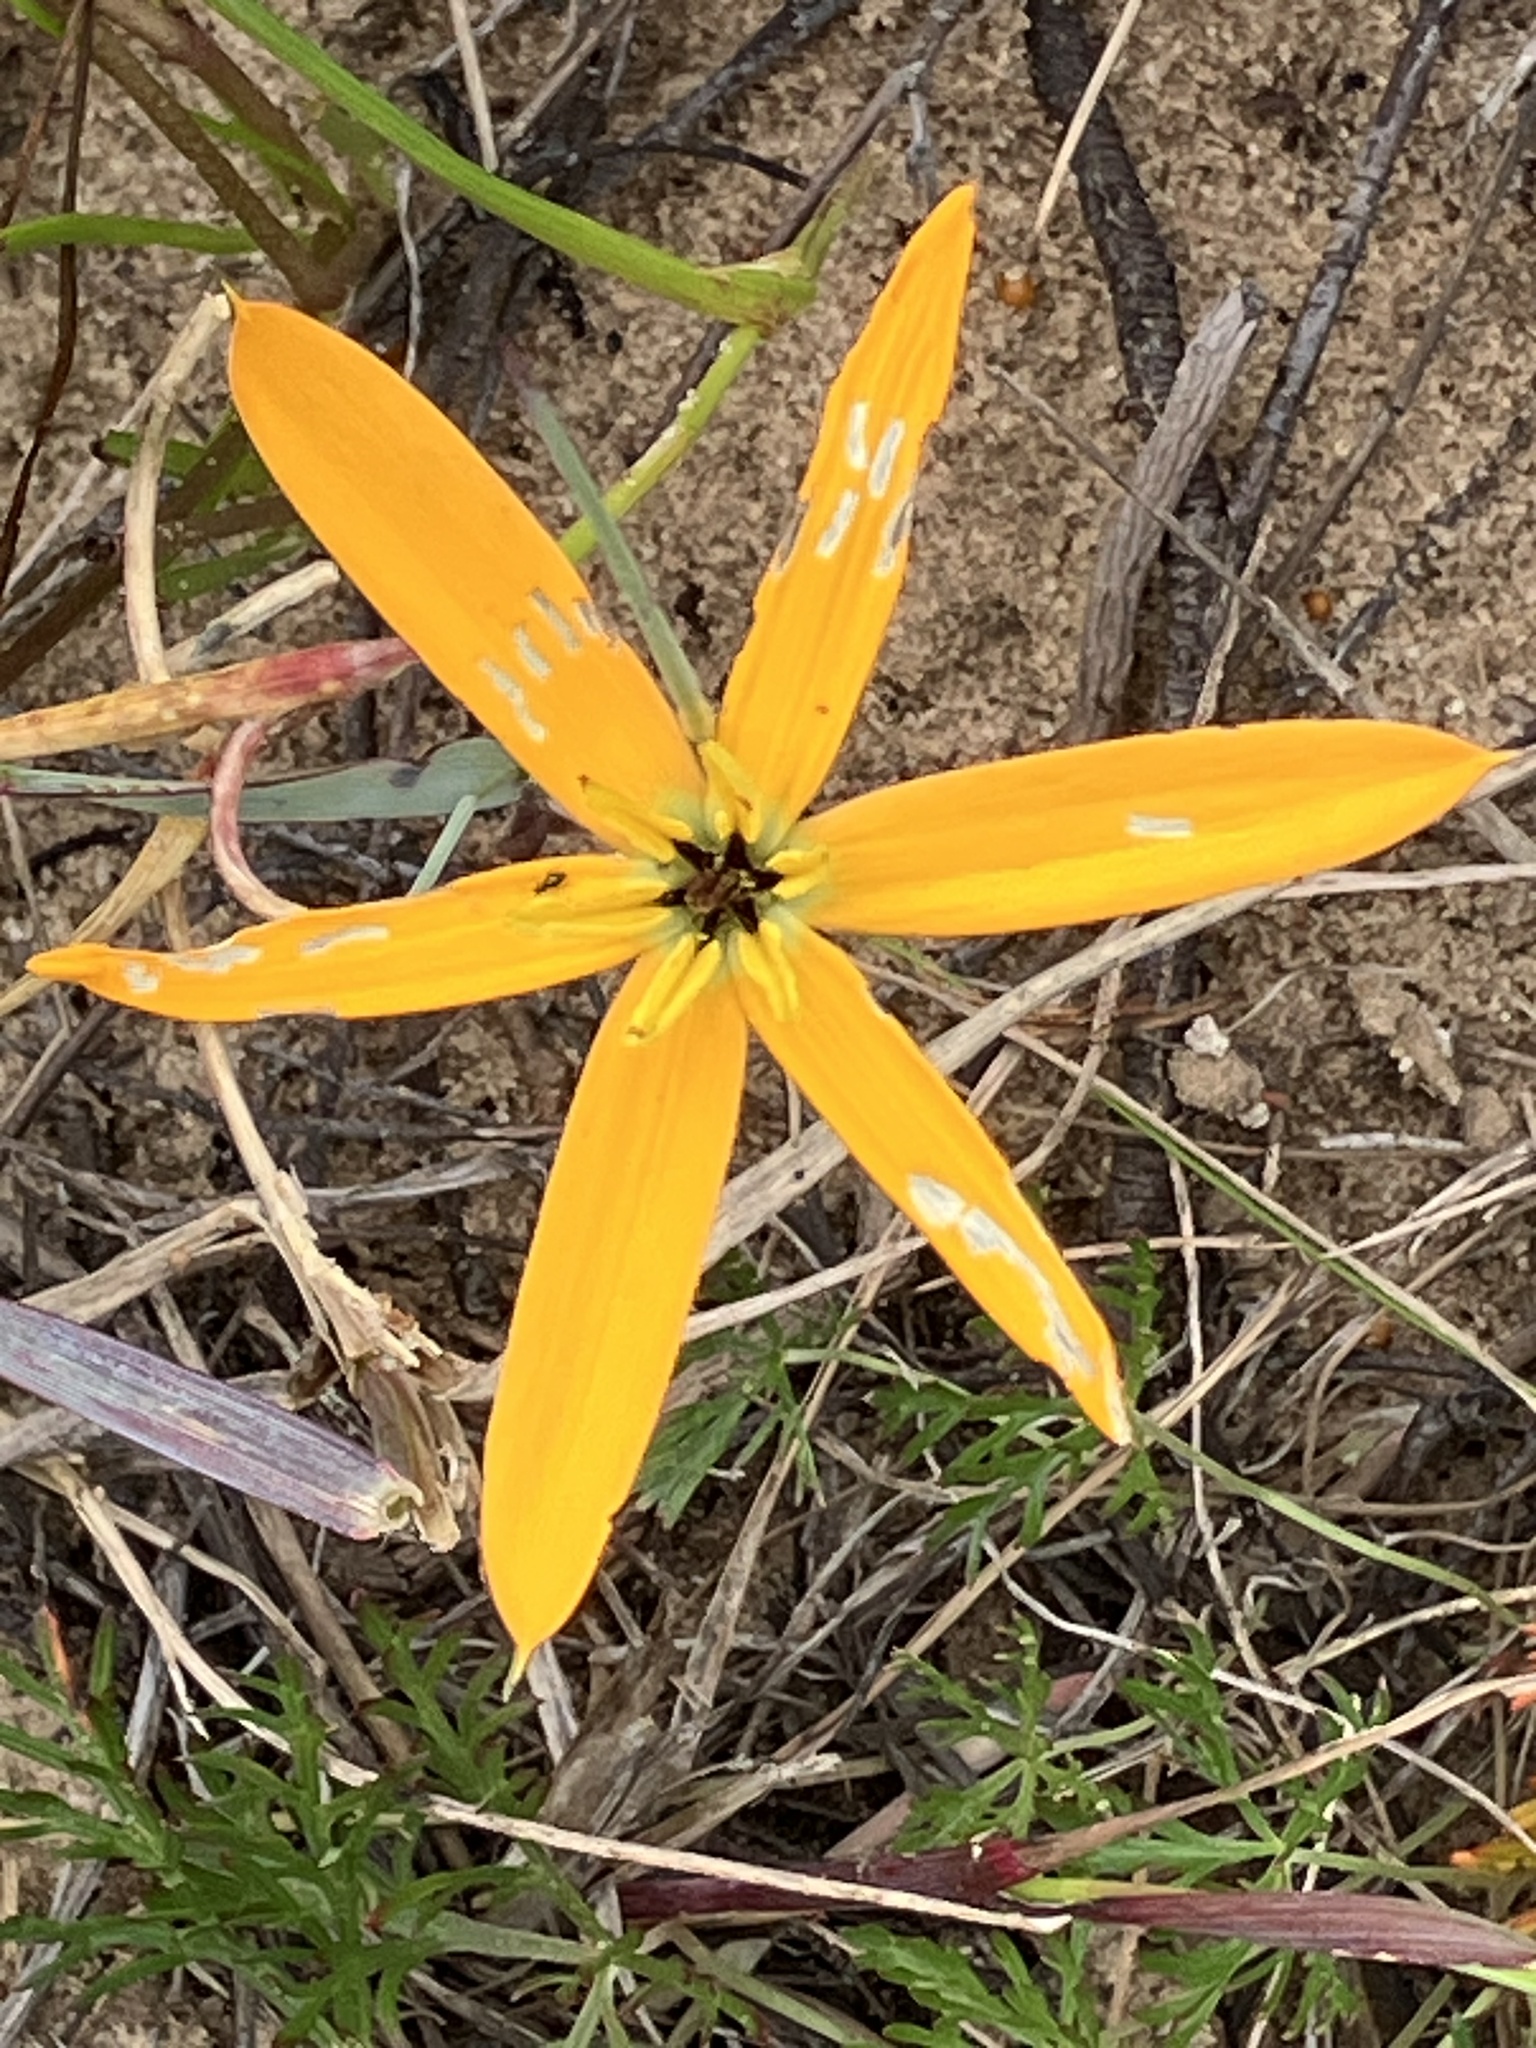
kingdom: Plantae
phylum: Tracheophyta
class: Liliopsida
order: Asparagales
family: Hypoxidaceae
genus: Pauridia
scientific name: Pauridia linearis
